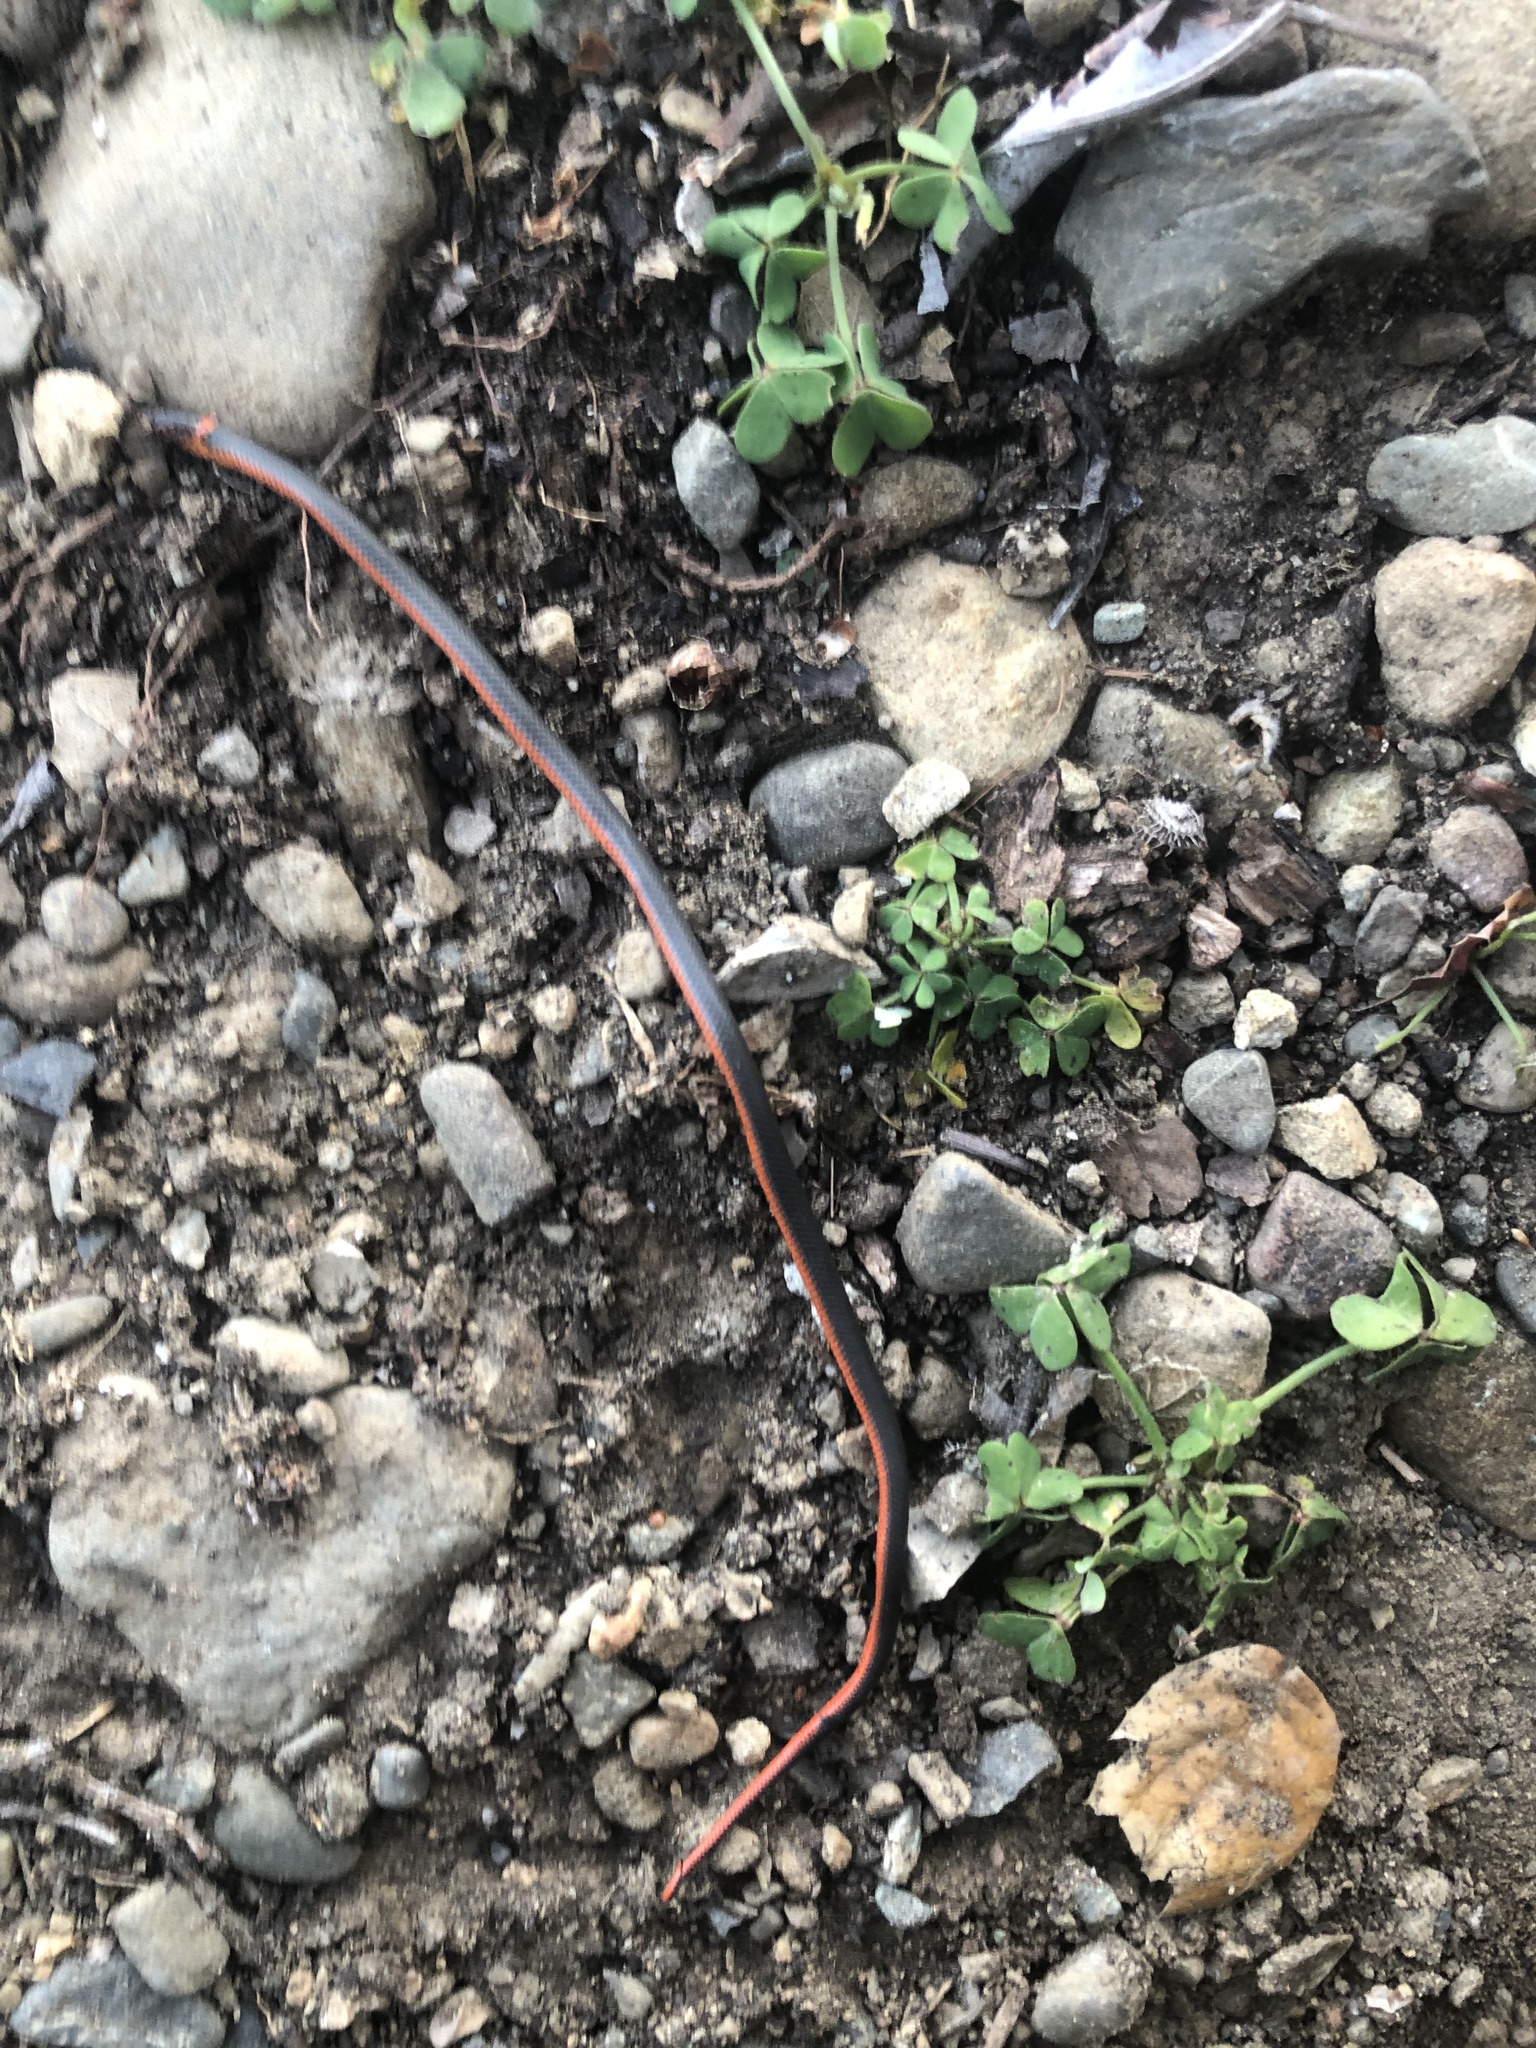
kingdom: Animalia
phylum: Chordata
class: Squamata
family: Colubridae
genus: Diadophis
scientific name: Diadophis punctatus
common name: Ringneck snake
